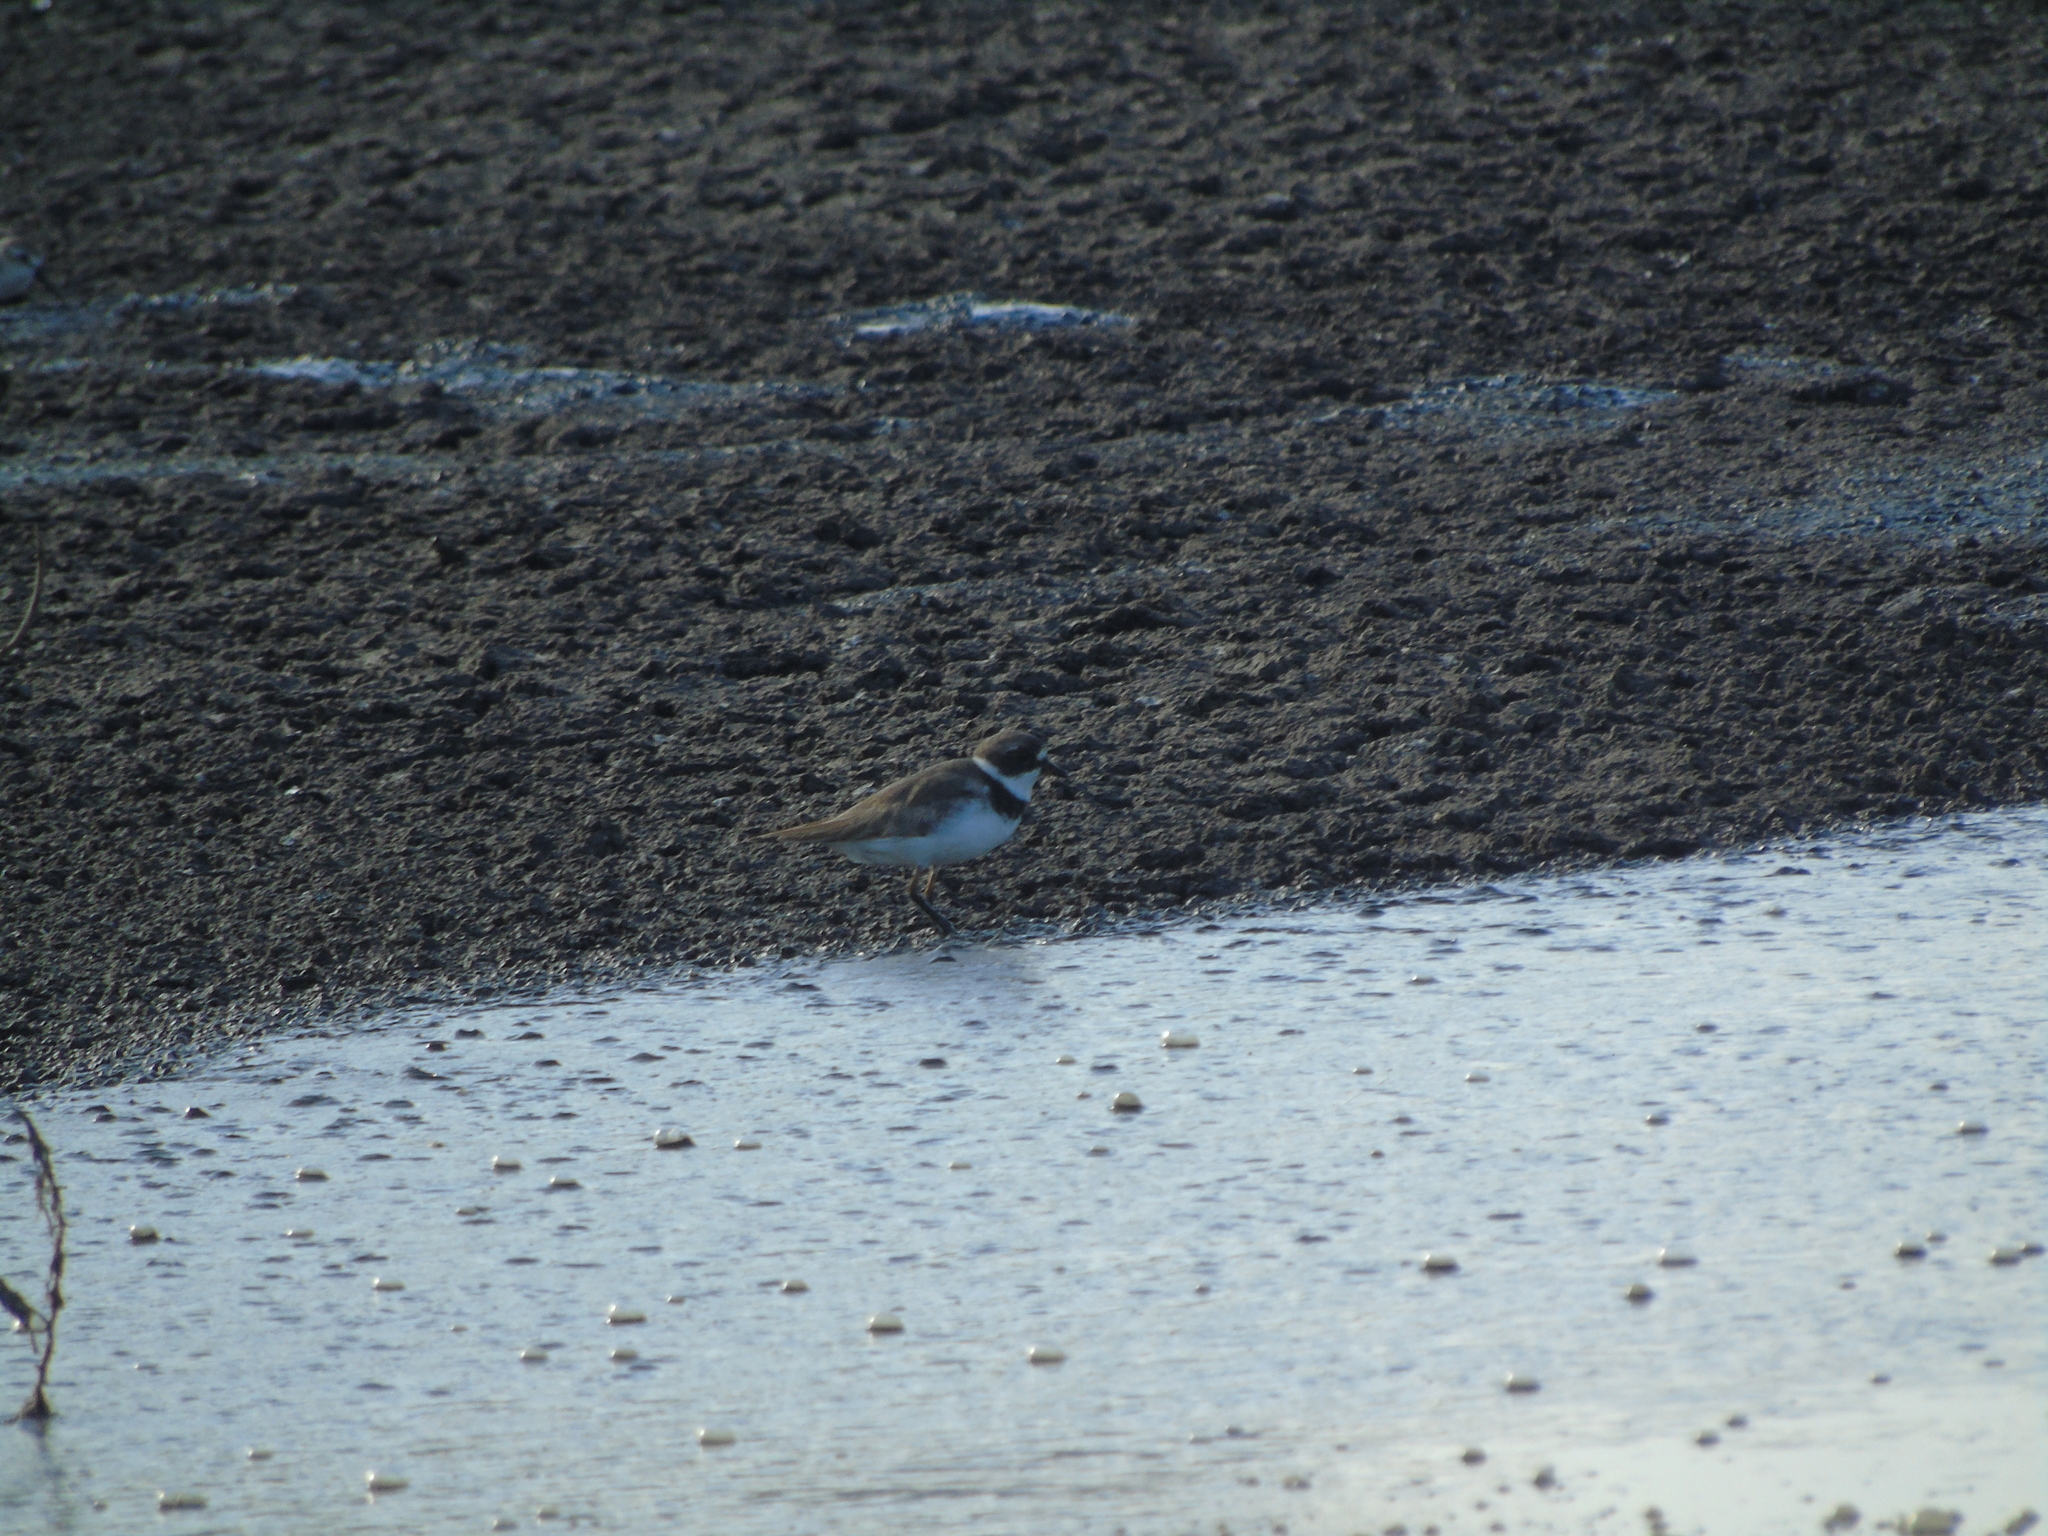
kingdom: Animalia
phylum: Chordata
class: Aves
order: Charadriiformes
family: Charadriidae
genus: Charadrius
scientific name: Charadrius semipalmatus
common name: Semipalmated plover
